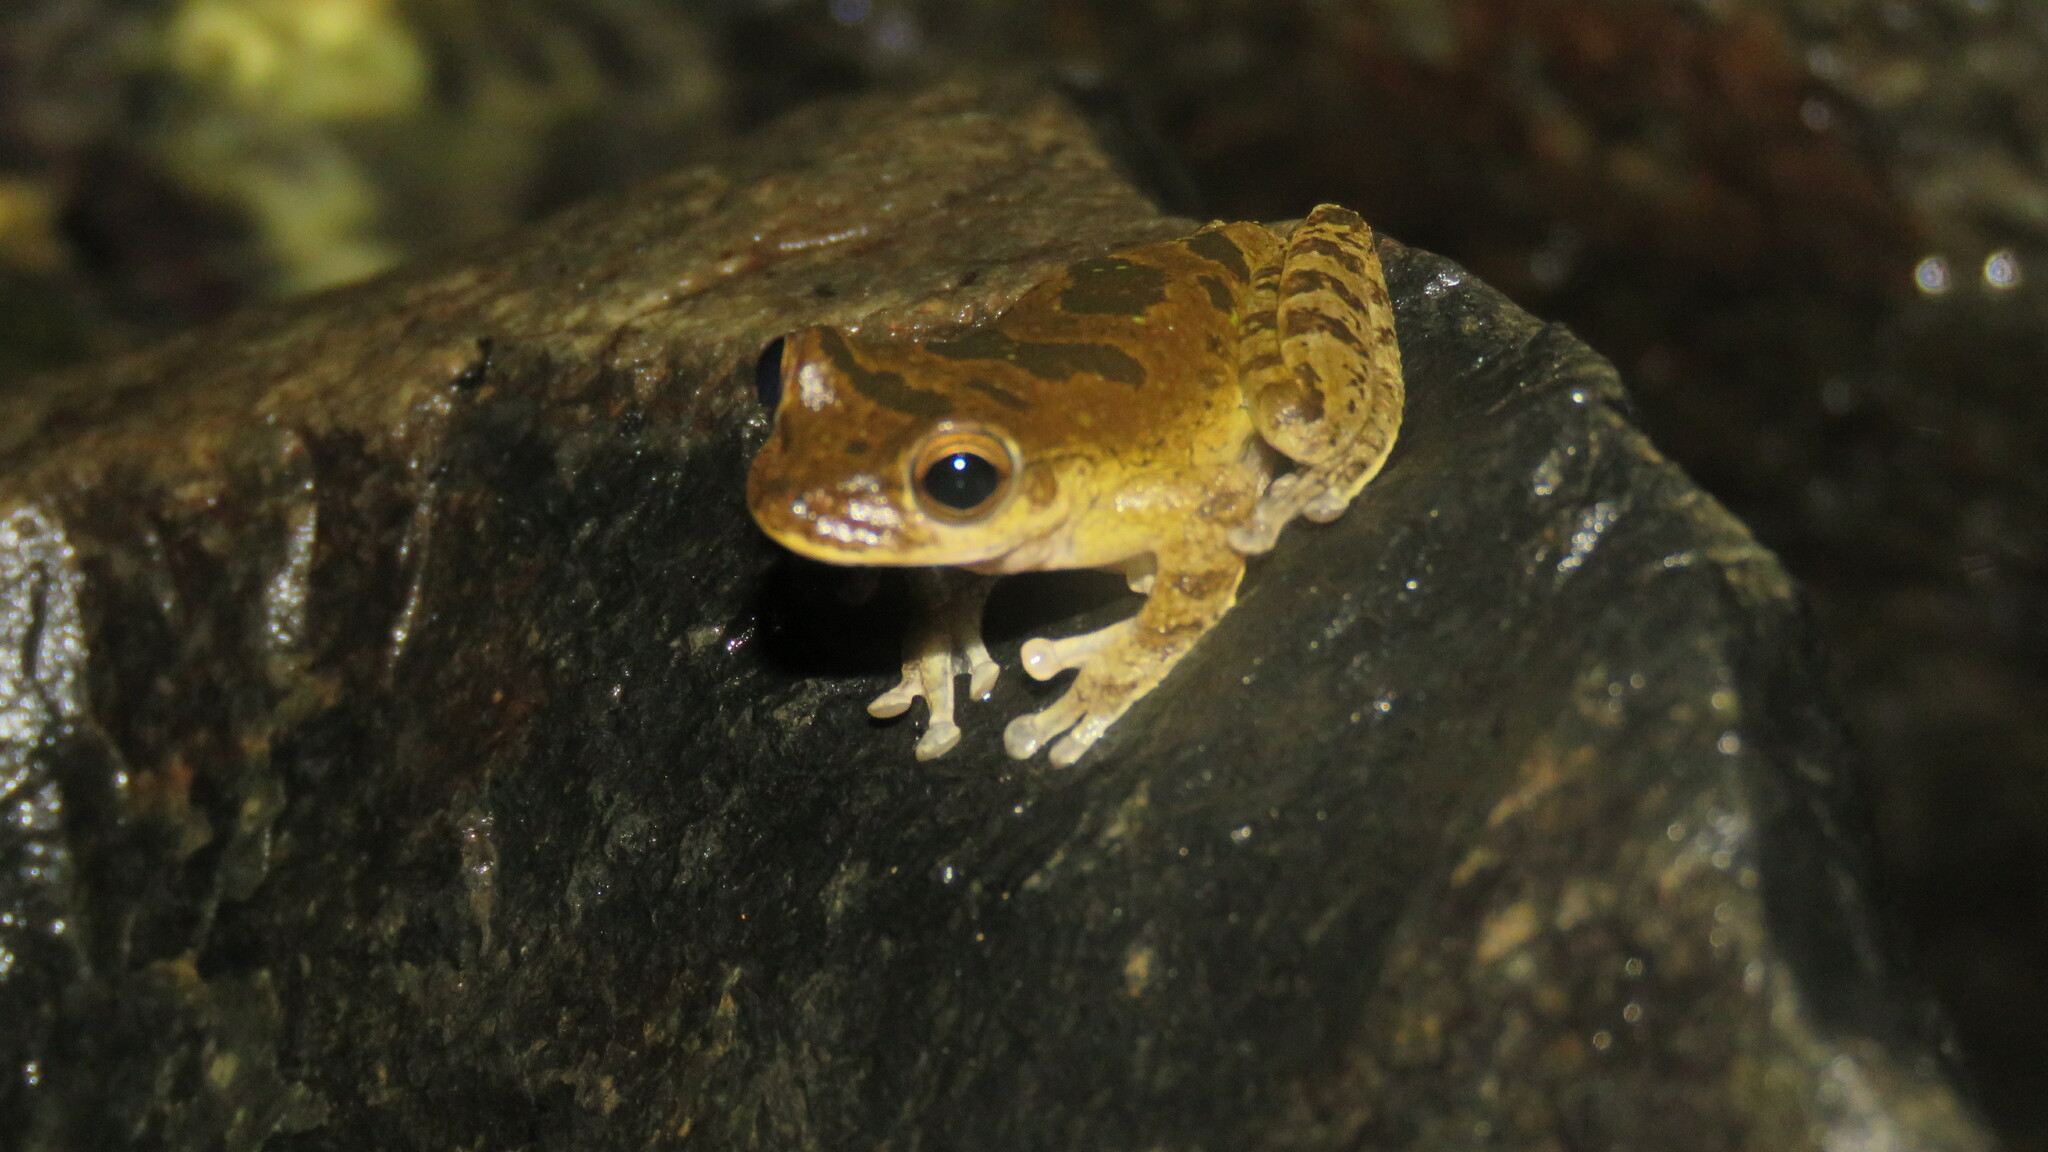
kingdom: Animalia
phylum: Chordata
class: Amphibia
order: Anura
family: Hylidae
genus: Smilisca
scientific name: Smilisca sordida
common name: Veragua cross-banded treefrog
